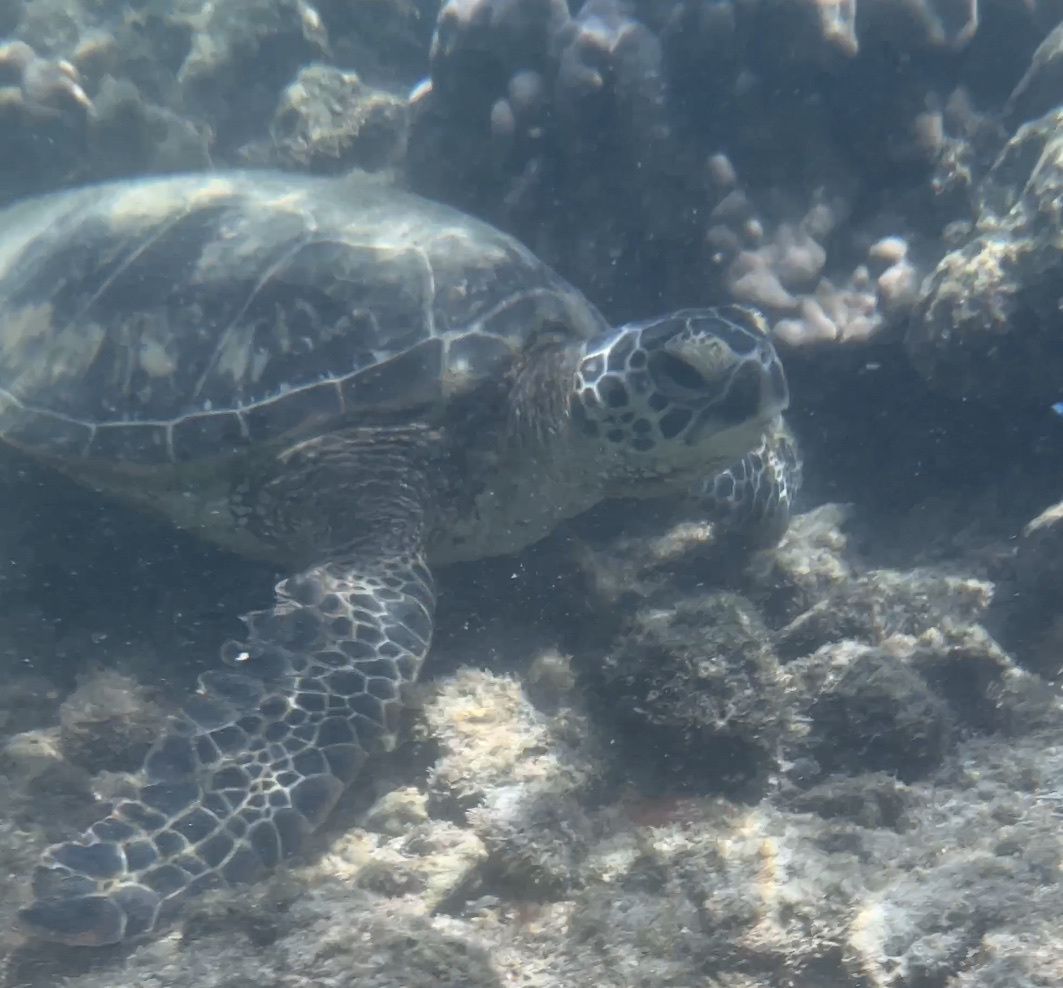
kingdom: Animalia
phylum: Chordata
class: Testudines
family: Cheloniidae
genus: Chelonia
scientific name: Chelonia mydas
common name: Green turtle
